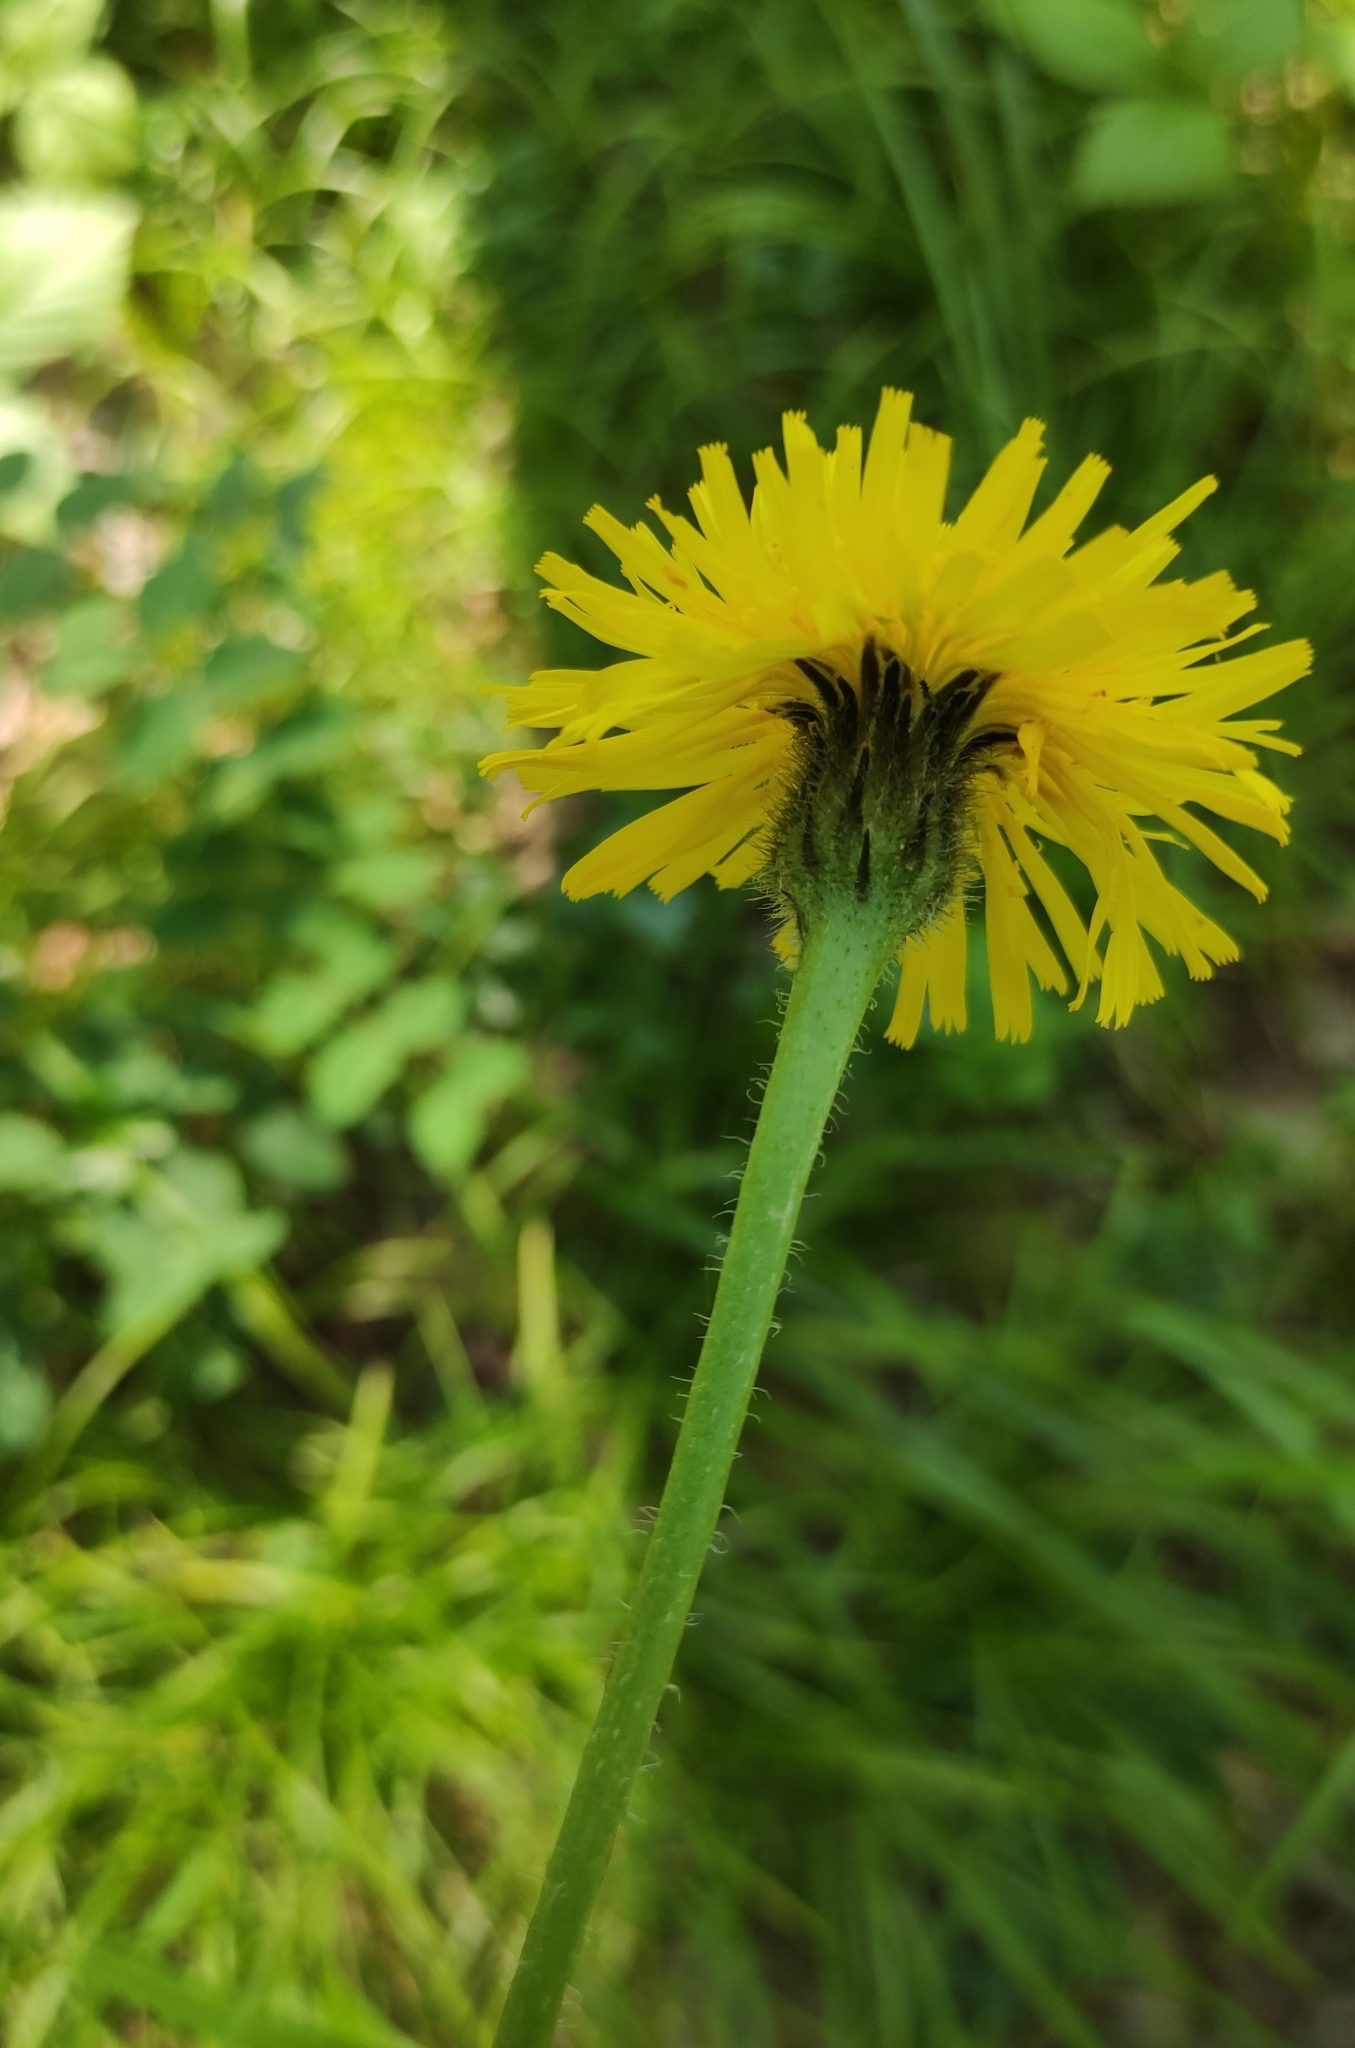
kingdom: Plantae
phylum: Tracheophyta
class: Magnoliopsida
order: Asterales
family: Asteraceae
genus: Trommsdorffia
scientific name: Trommsdorffia maculata
